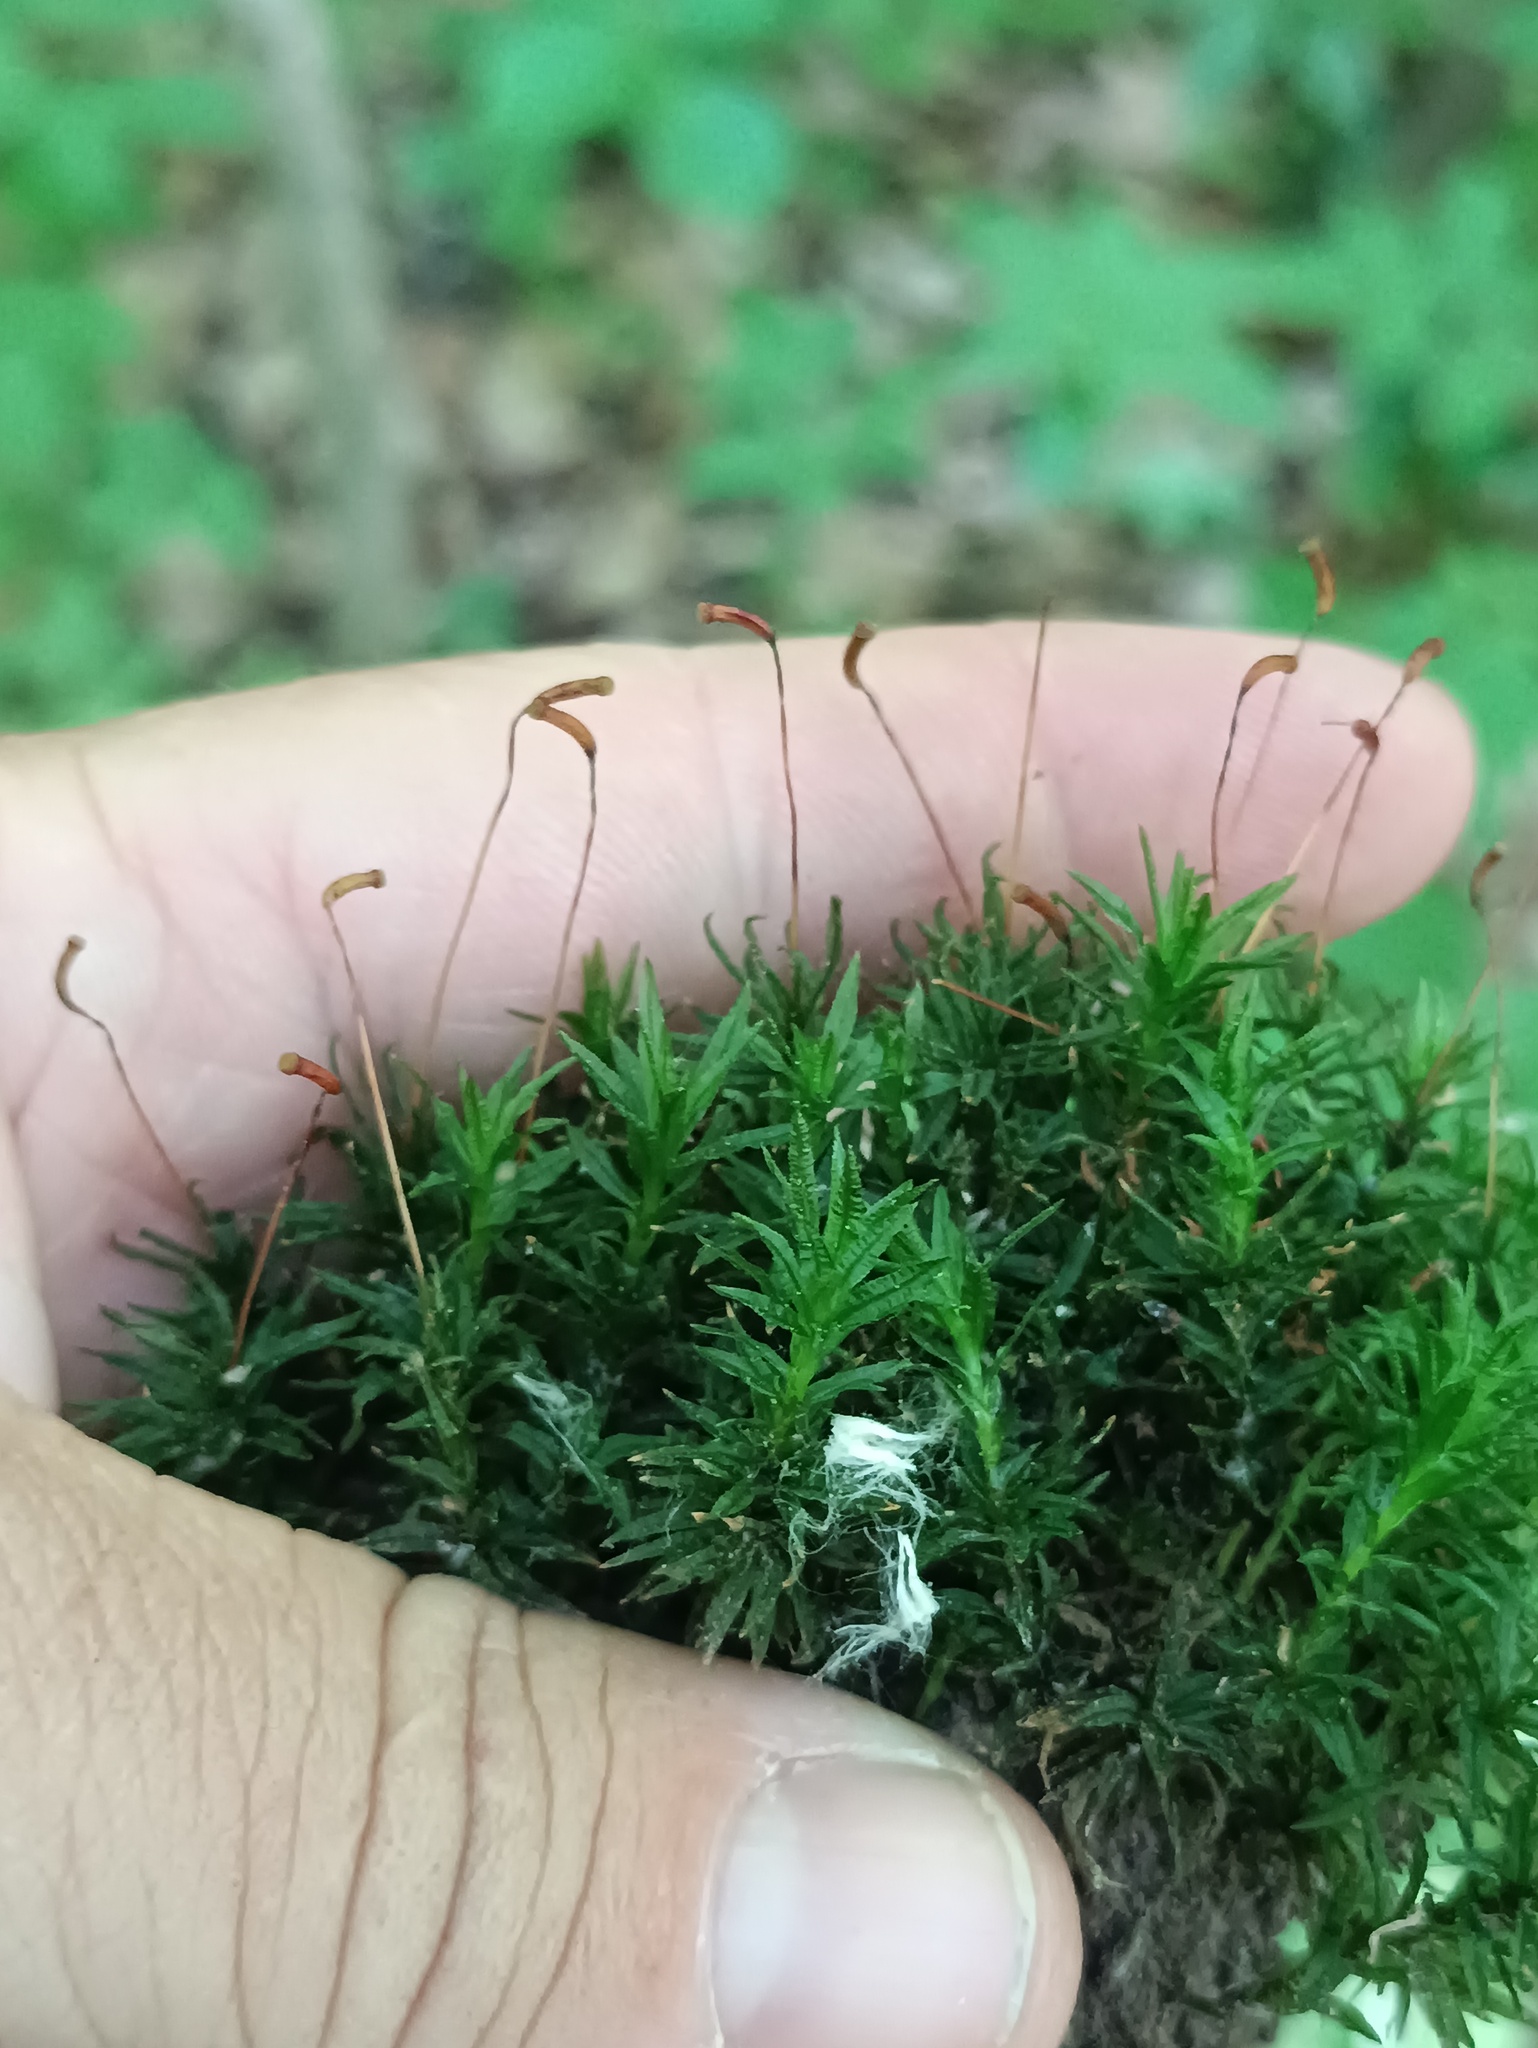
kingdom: Plantae
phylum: Bryophyta
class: Polytrichopsida
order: Polytrichales
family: Polytrichaceae
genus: Atrichum
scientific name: Atrichum undulatum
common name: Common smoothcap
